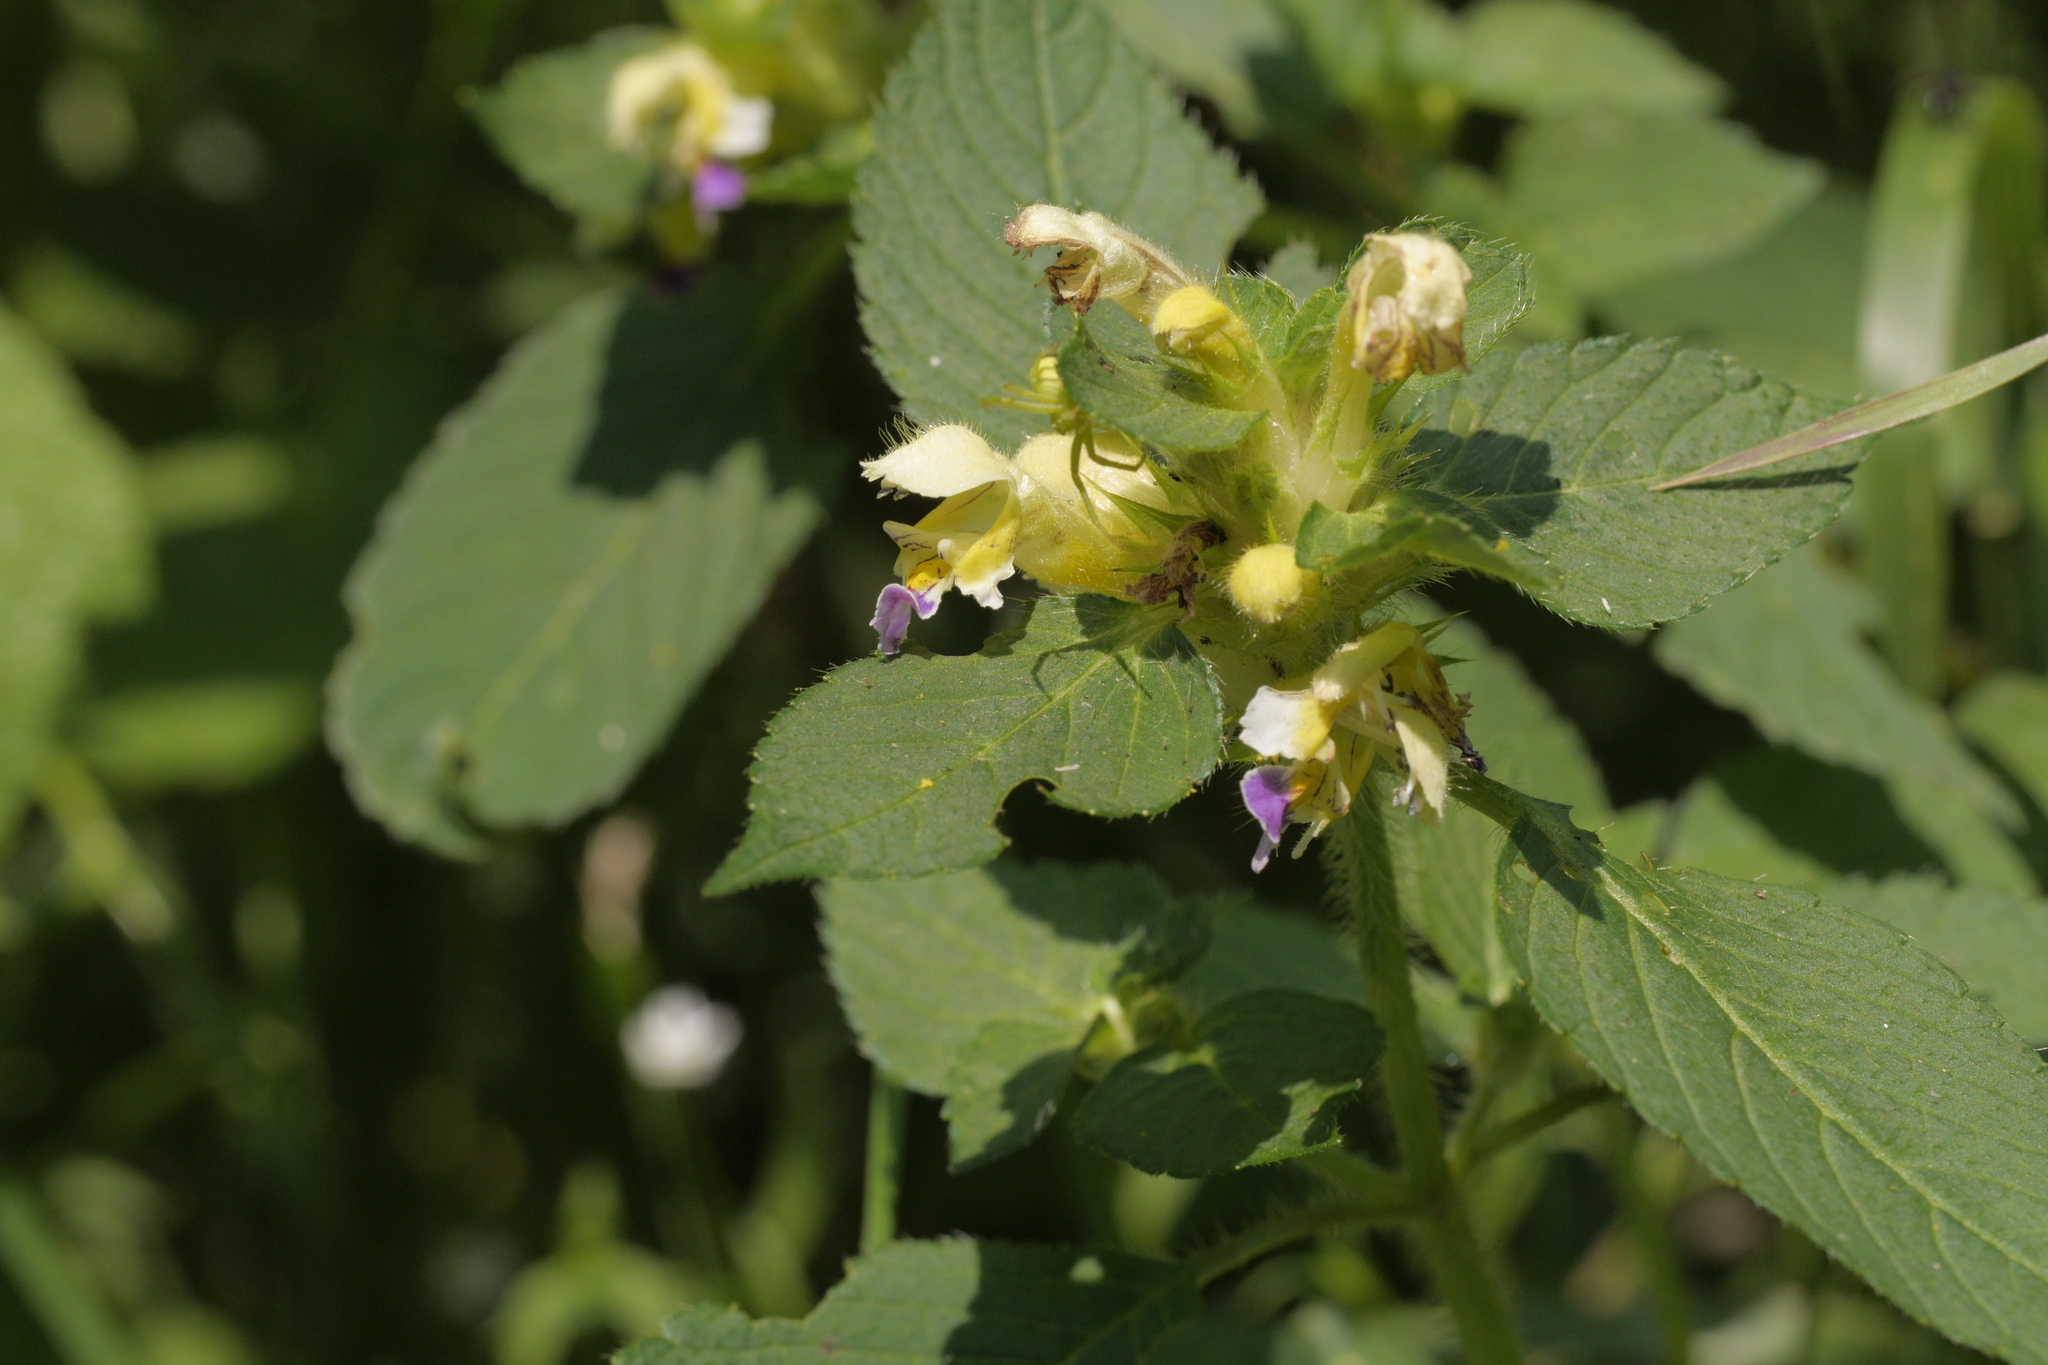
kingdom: Plantae
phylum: Tracheophyta
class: Magnoliopsida
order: Lamiales
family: Lamiaceae
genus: Galeopsis
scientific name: Galeopsis speciosa
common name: Large-flowered hemp-nettle
